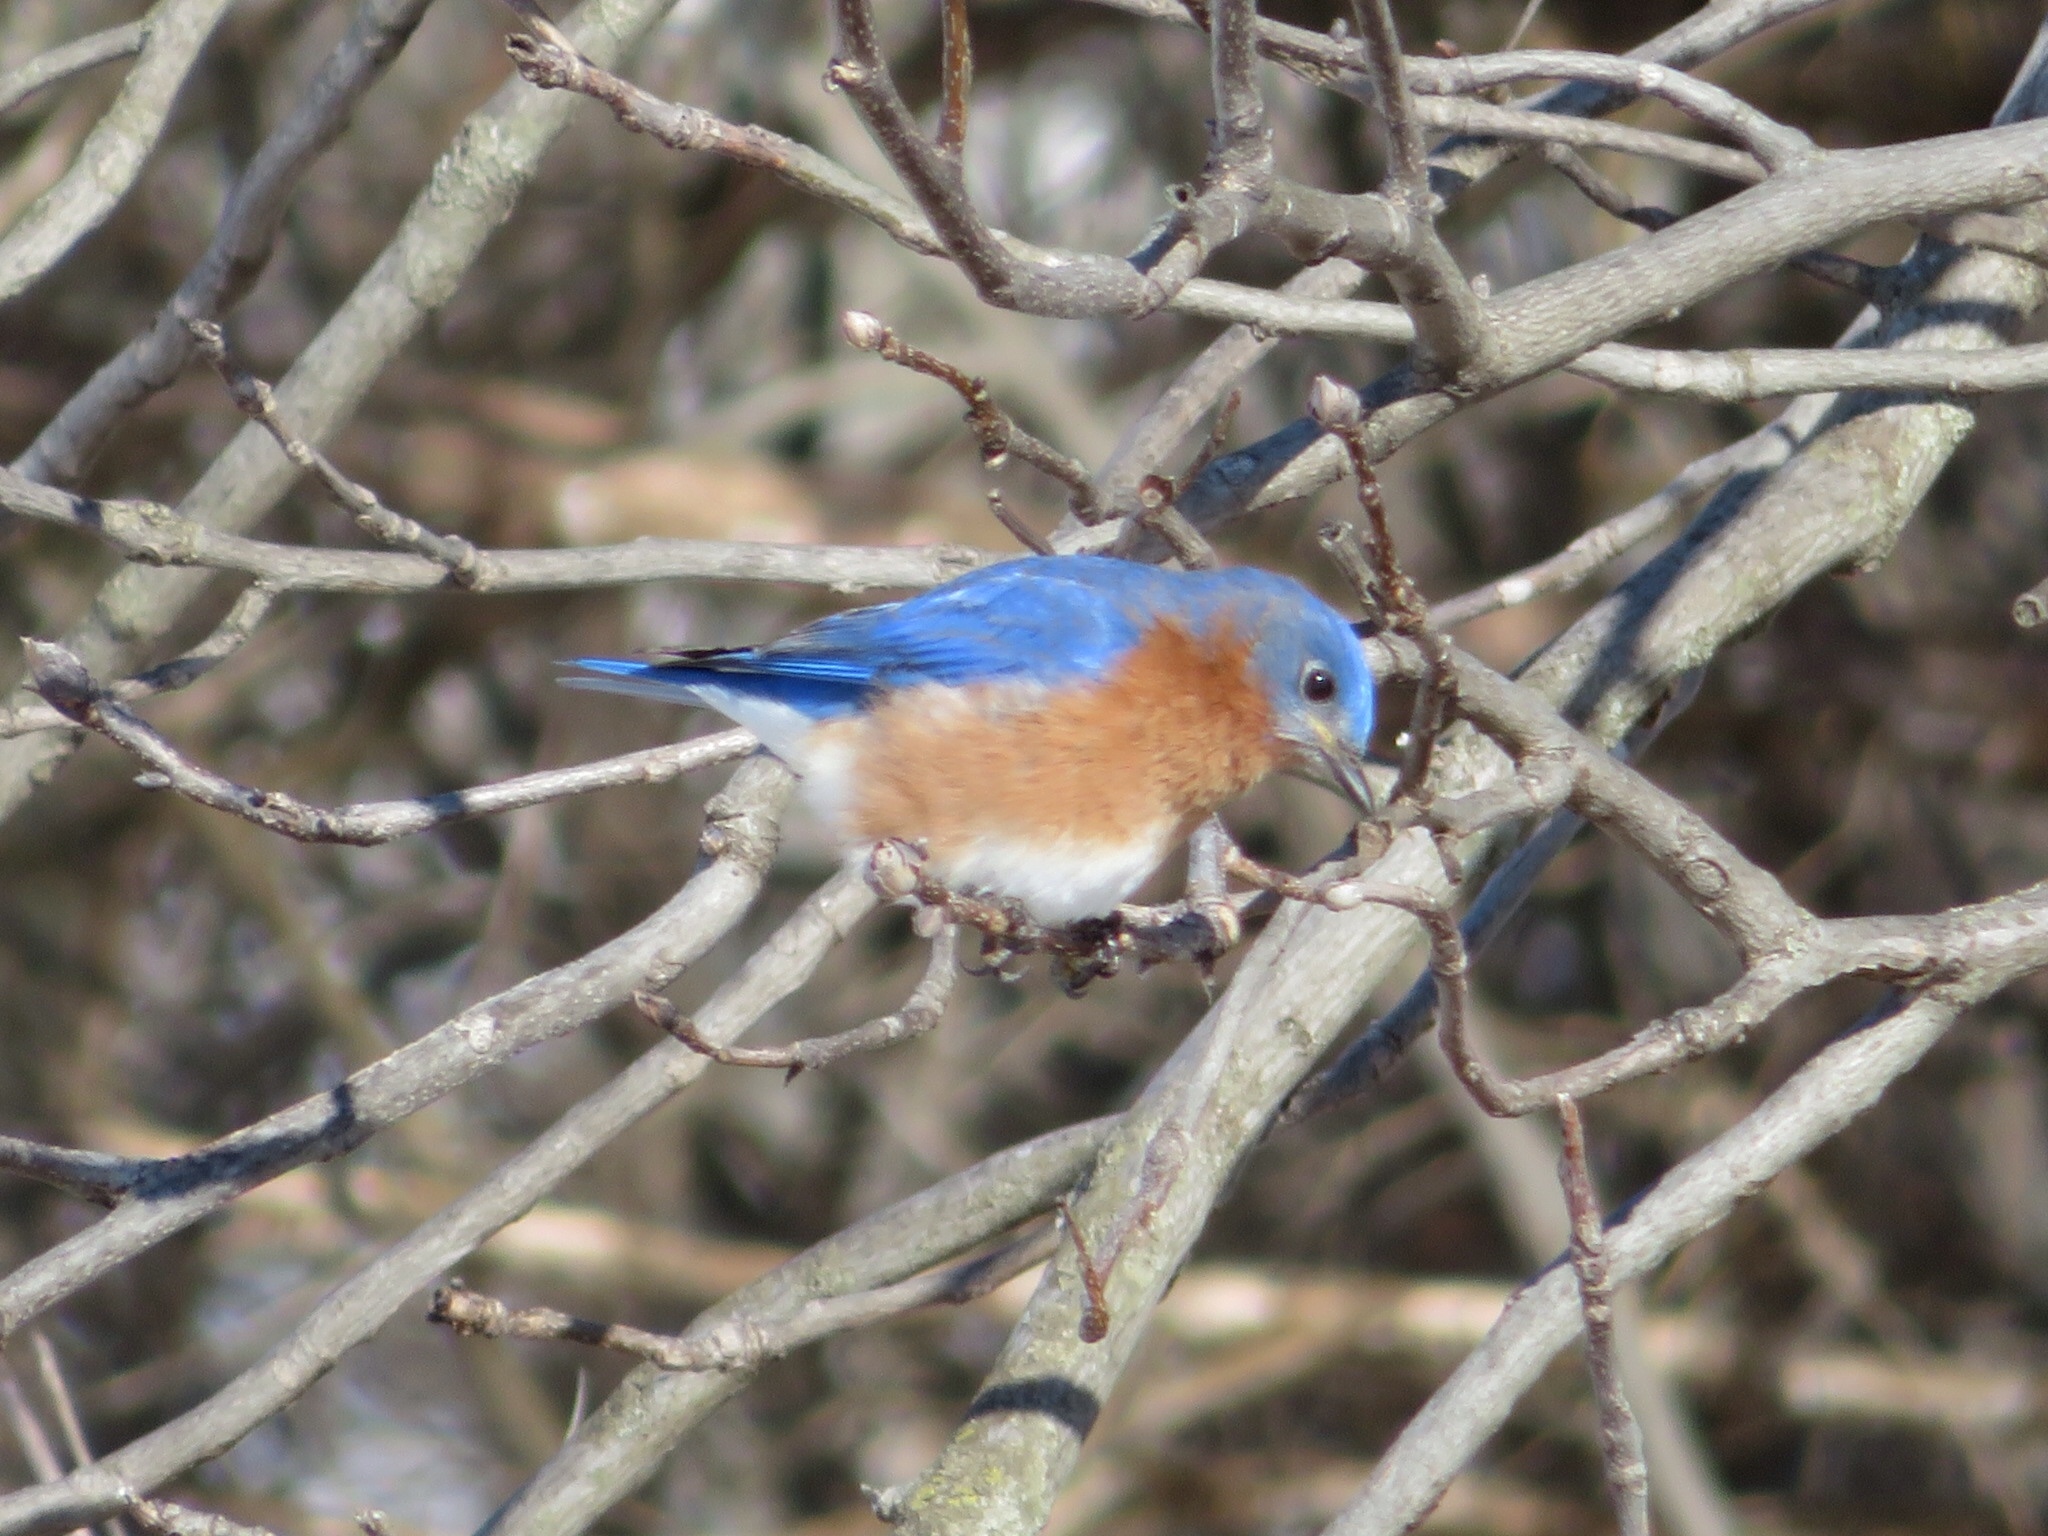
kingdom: Animalia
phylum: Chordata
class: Aves
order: Passeriformes
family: Turdidae
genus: Sialia
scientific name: Sialia sialis
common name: Eastern bluebird
